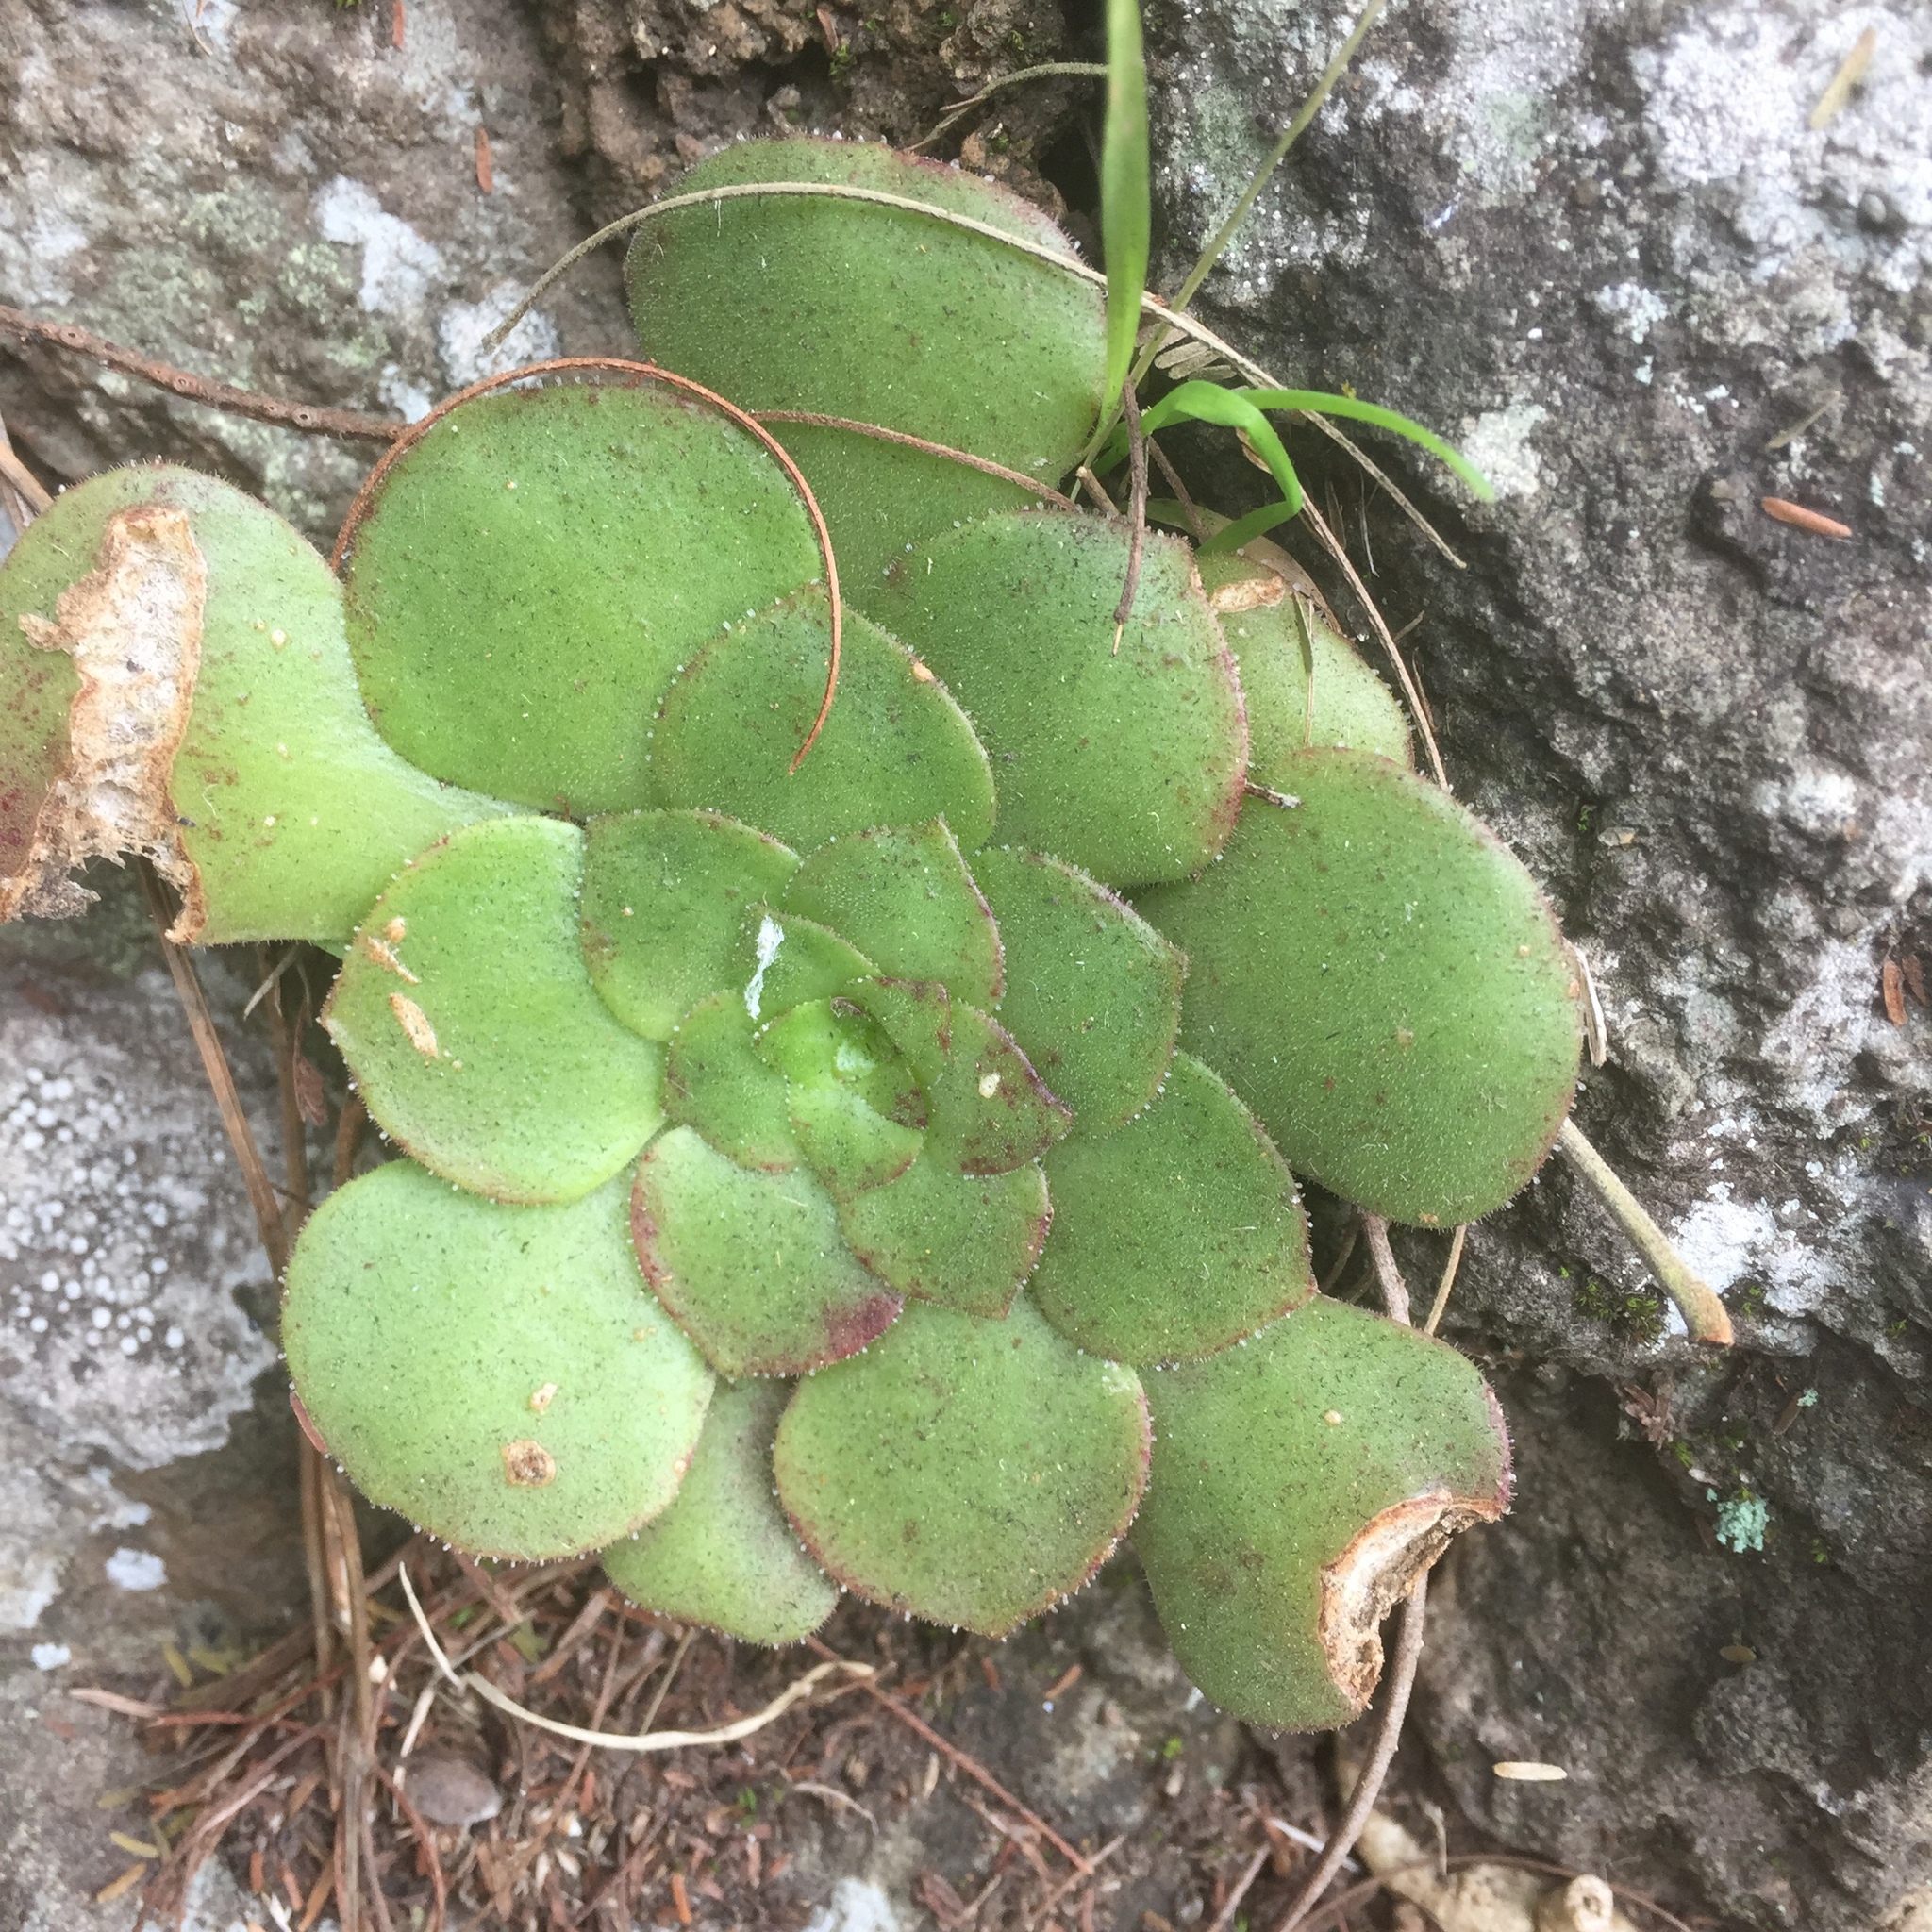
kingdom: Plantae
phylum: Tracheophyta
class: Magnoliopsida
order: Saxifragales
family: Crassulaceae
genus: Aeonium
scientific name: Aeonium glandulosum
